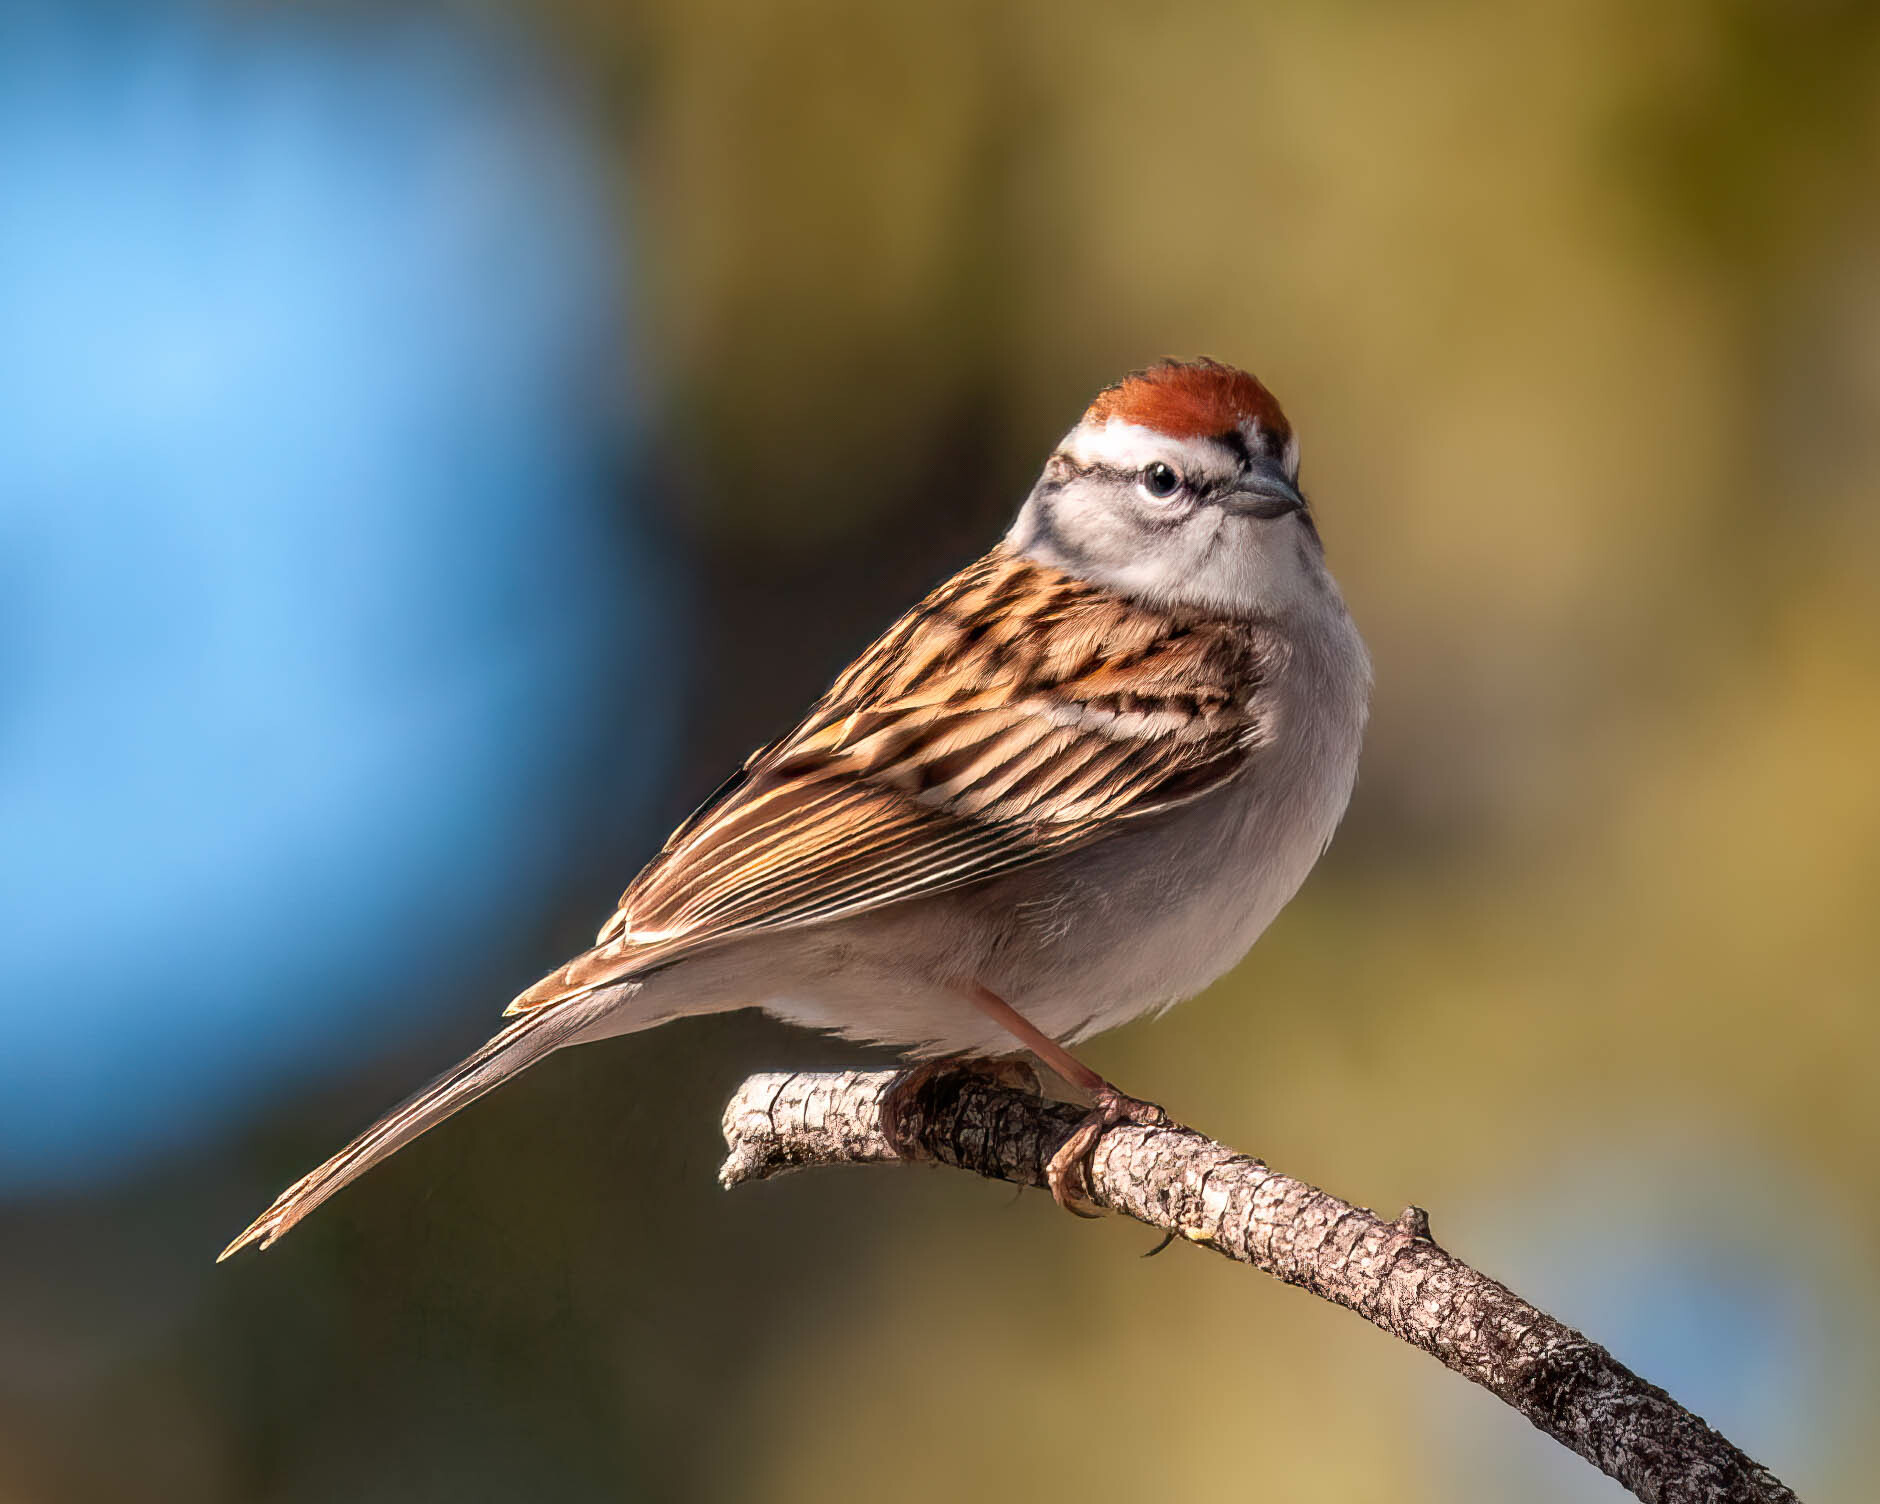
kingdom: Animalia
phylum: Chordata
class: Aves
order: Passeriformes
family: Passerellidae
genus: Spizella
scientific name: Spizella passerina
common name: Chipping sparrow
